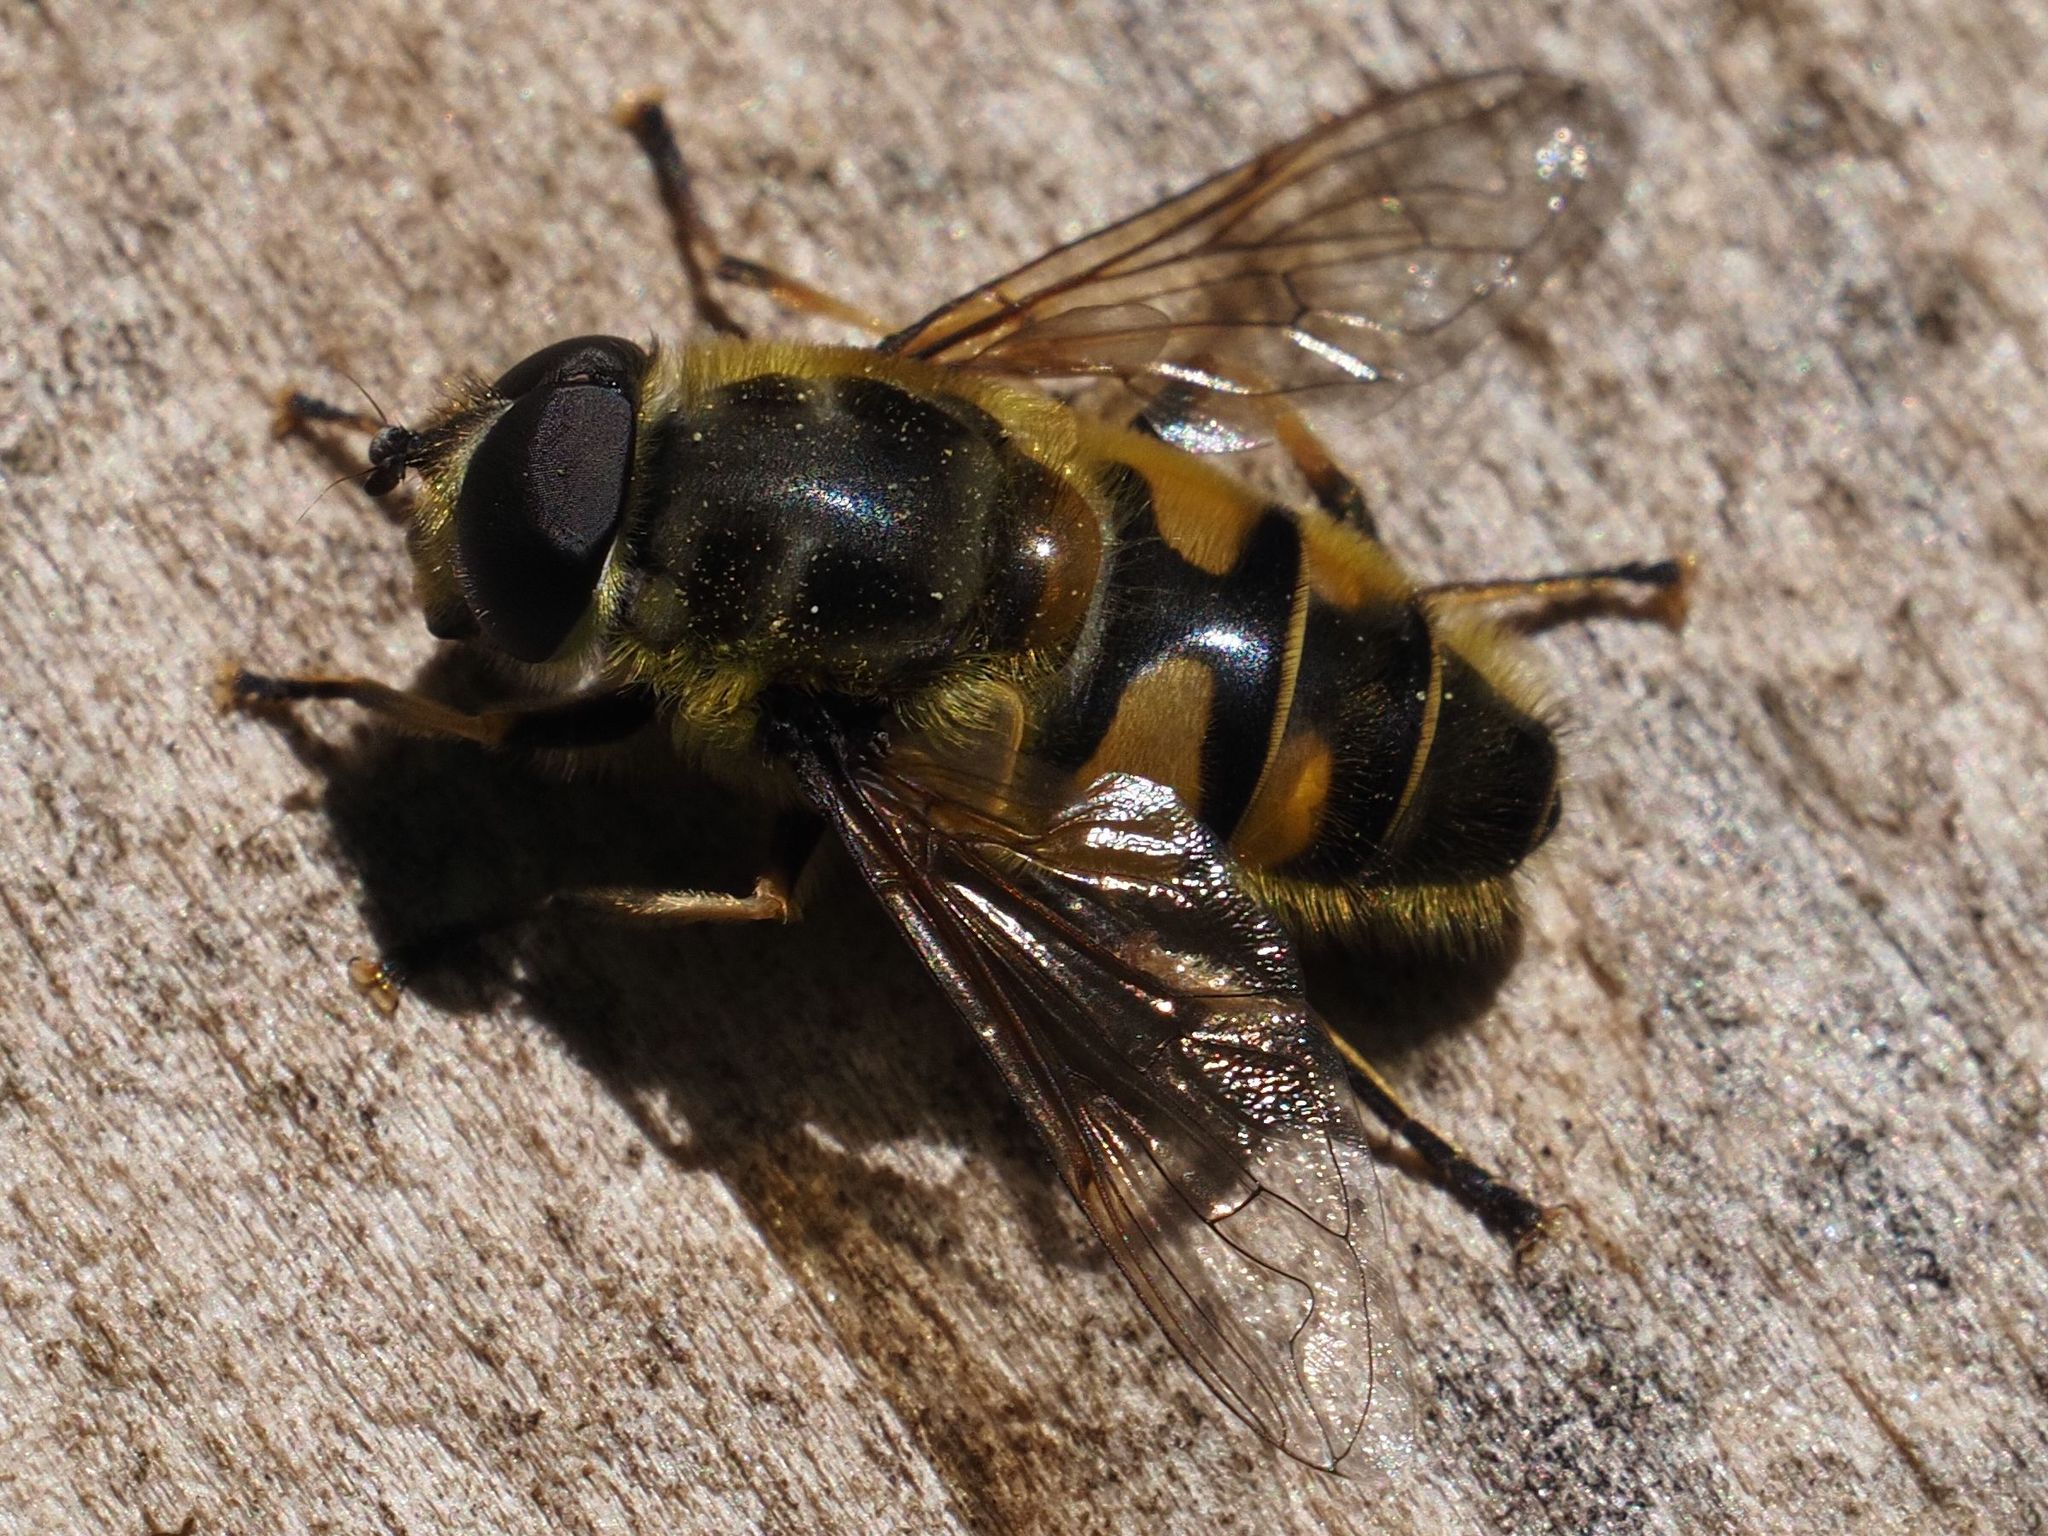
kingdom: Animalia
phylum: Arthropoda
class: Insecta
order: Diptera
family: Syrphidae
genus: Myathropa
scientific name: Myathropa florea
